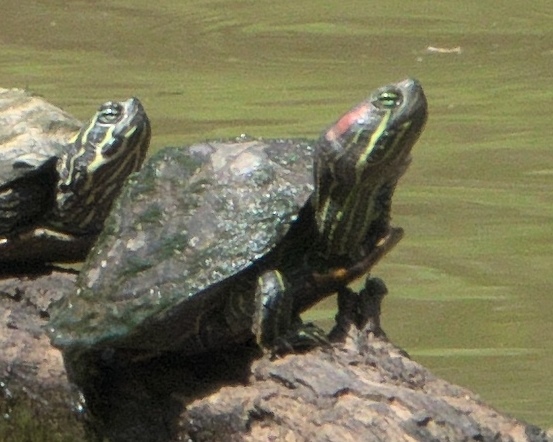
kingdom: Animalia
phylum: Chordata
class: Testudines
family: Emydidae
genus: Trachemys
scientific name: Trachemys scripta
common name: Slider
